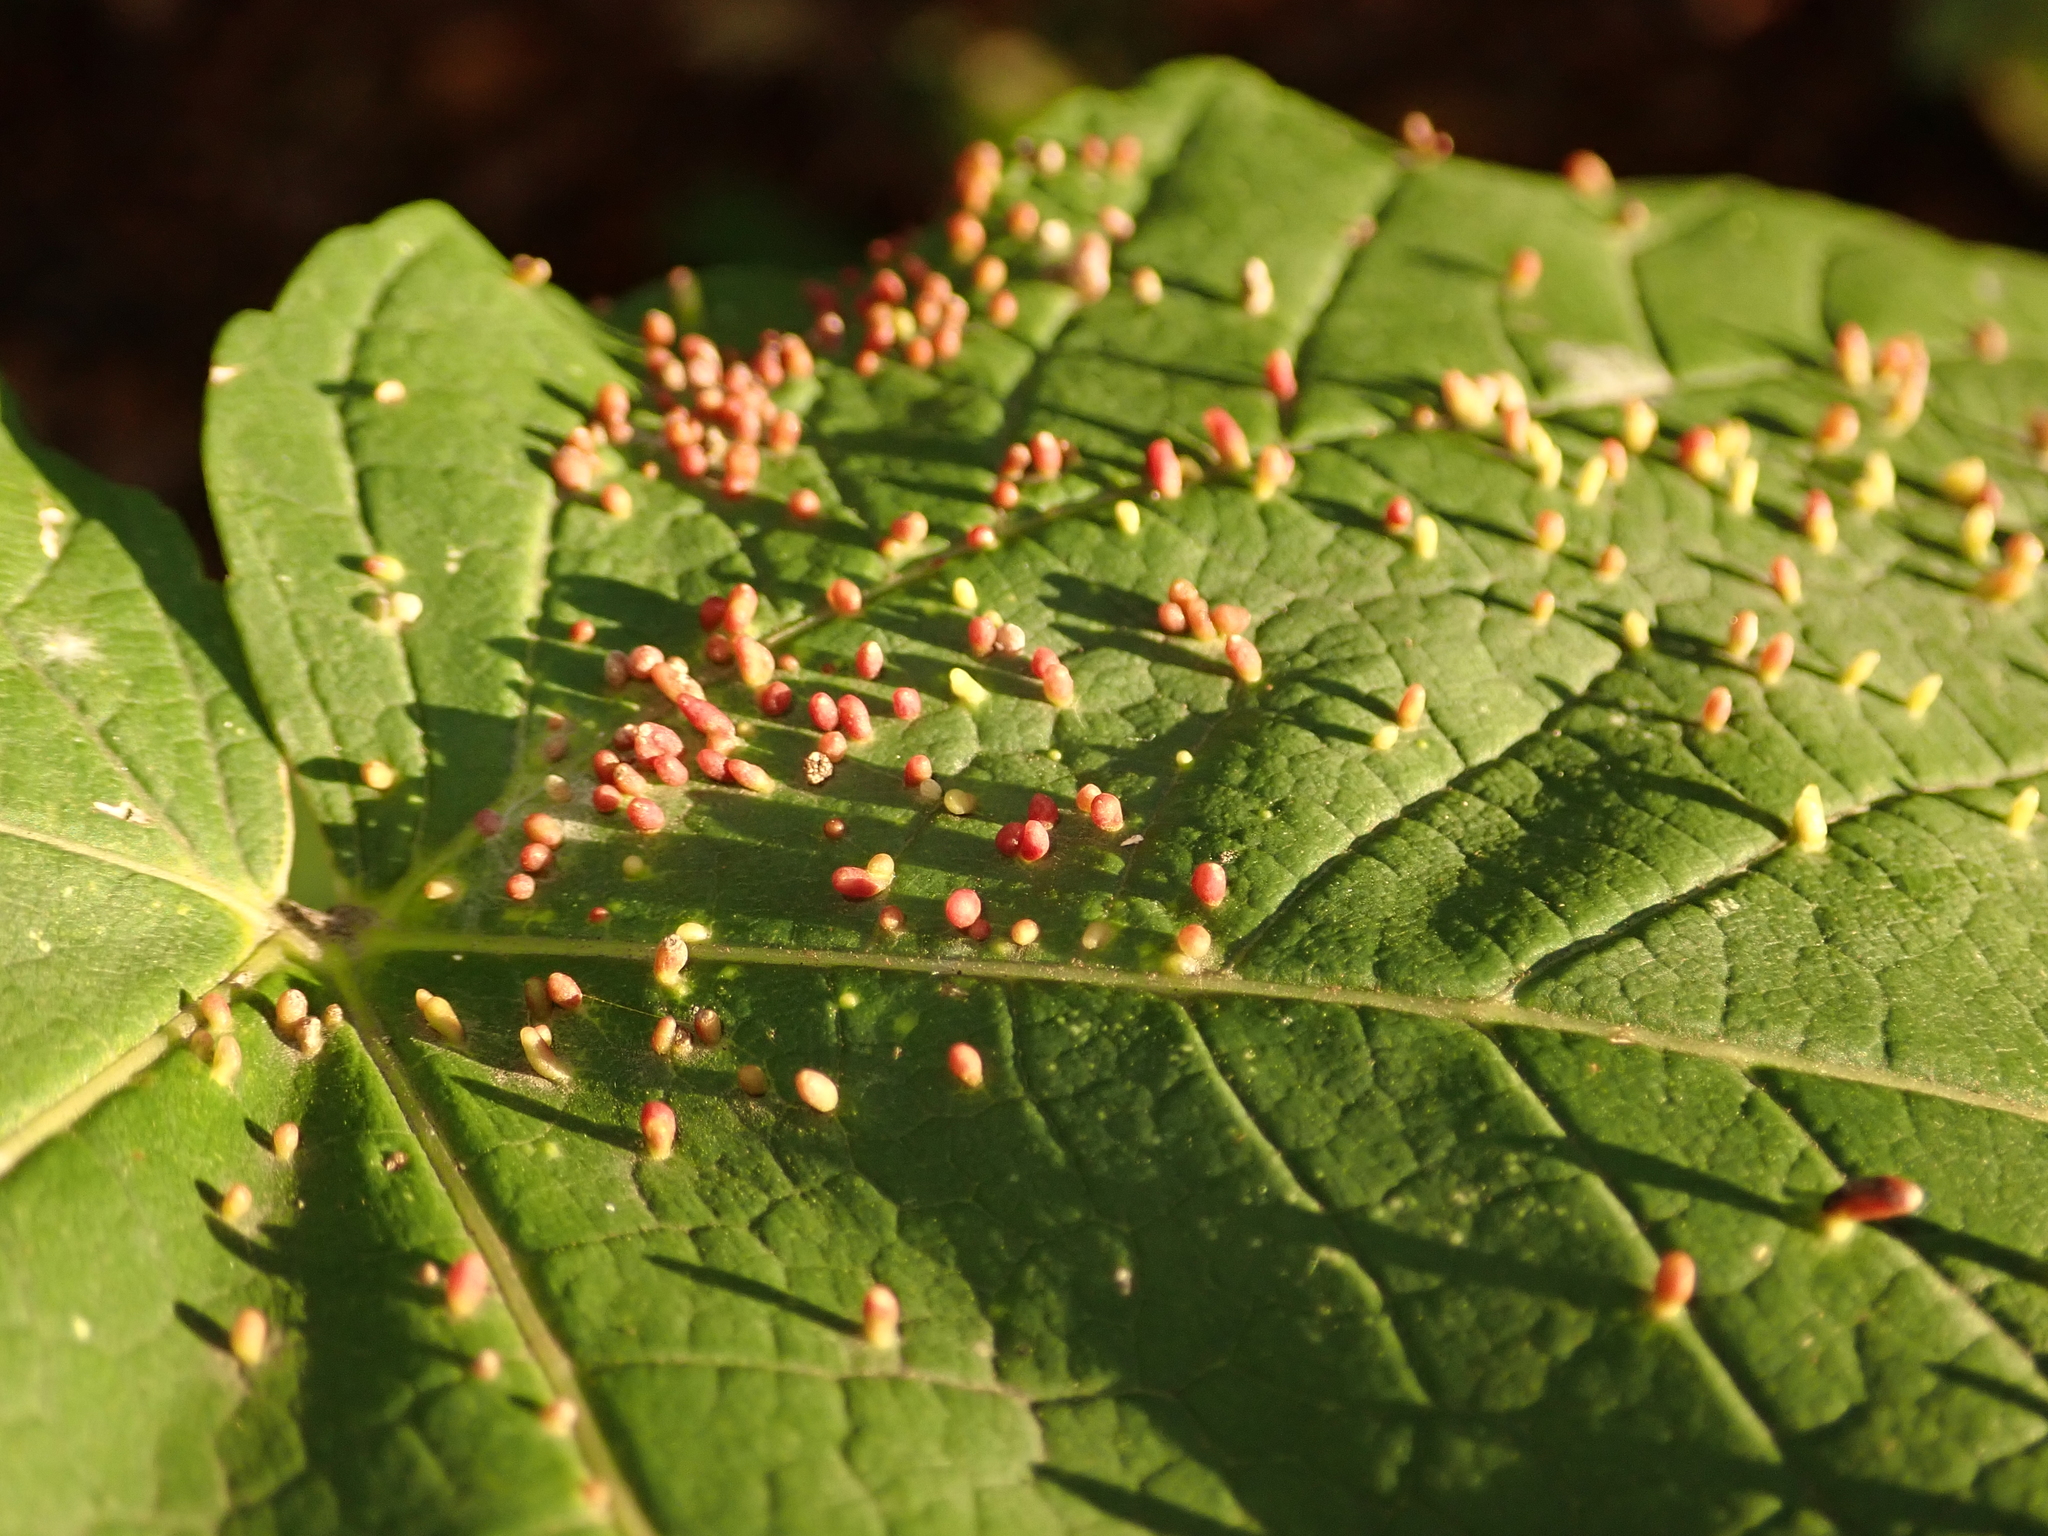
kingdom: Animalia
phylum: Arthropoda
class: Arachnida
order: Trombidiformes
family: Eriophyidae
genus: Aceria
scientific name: Aceria cephaloneus
